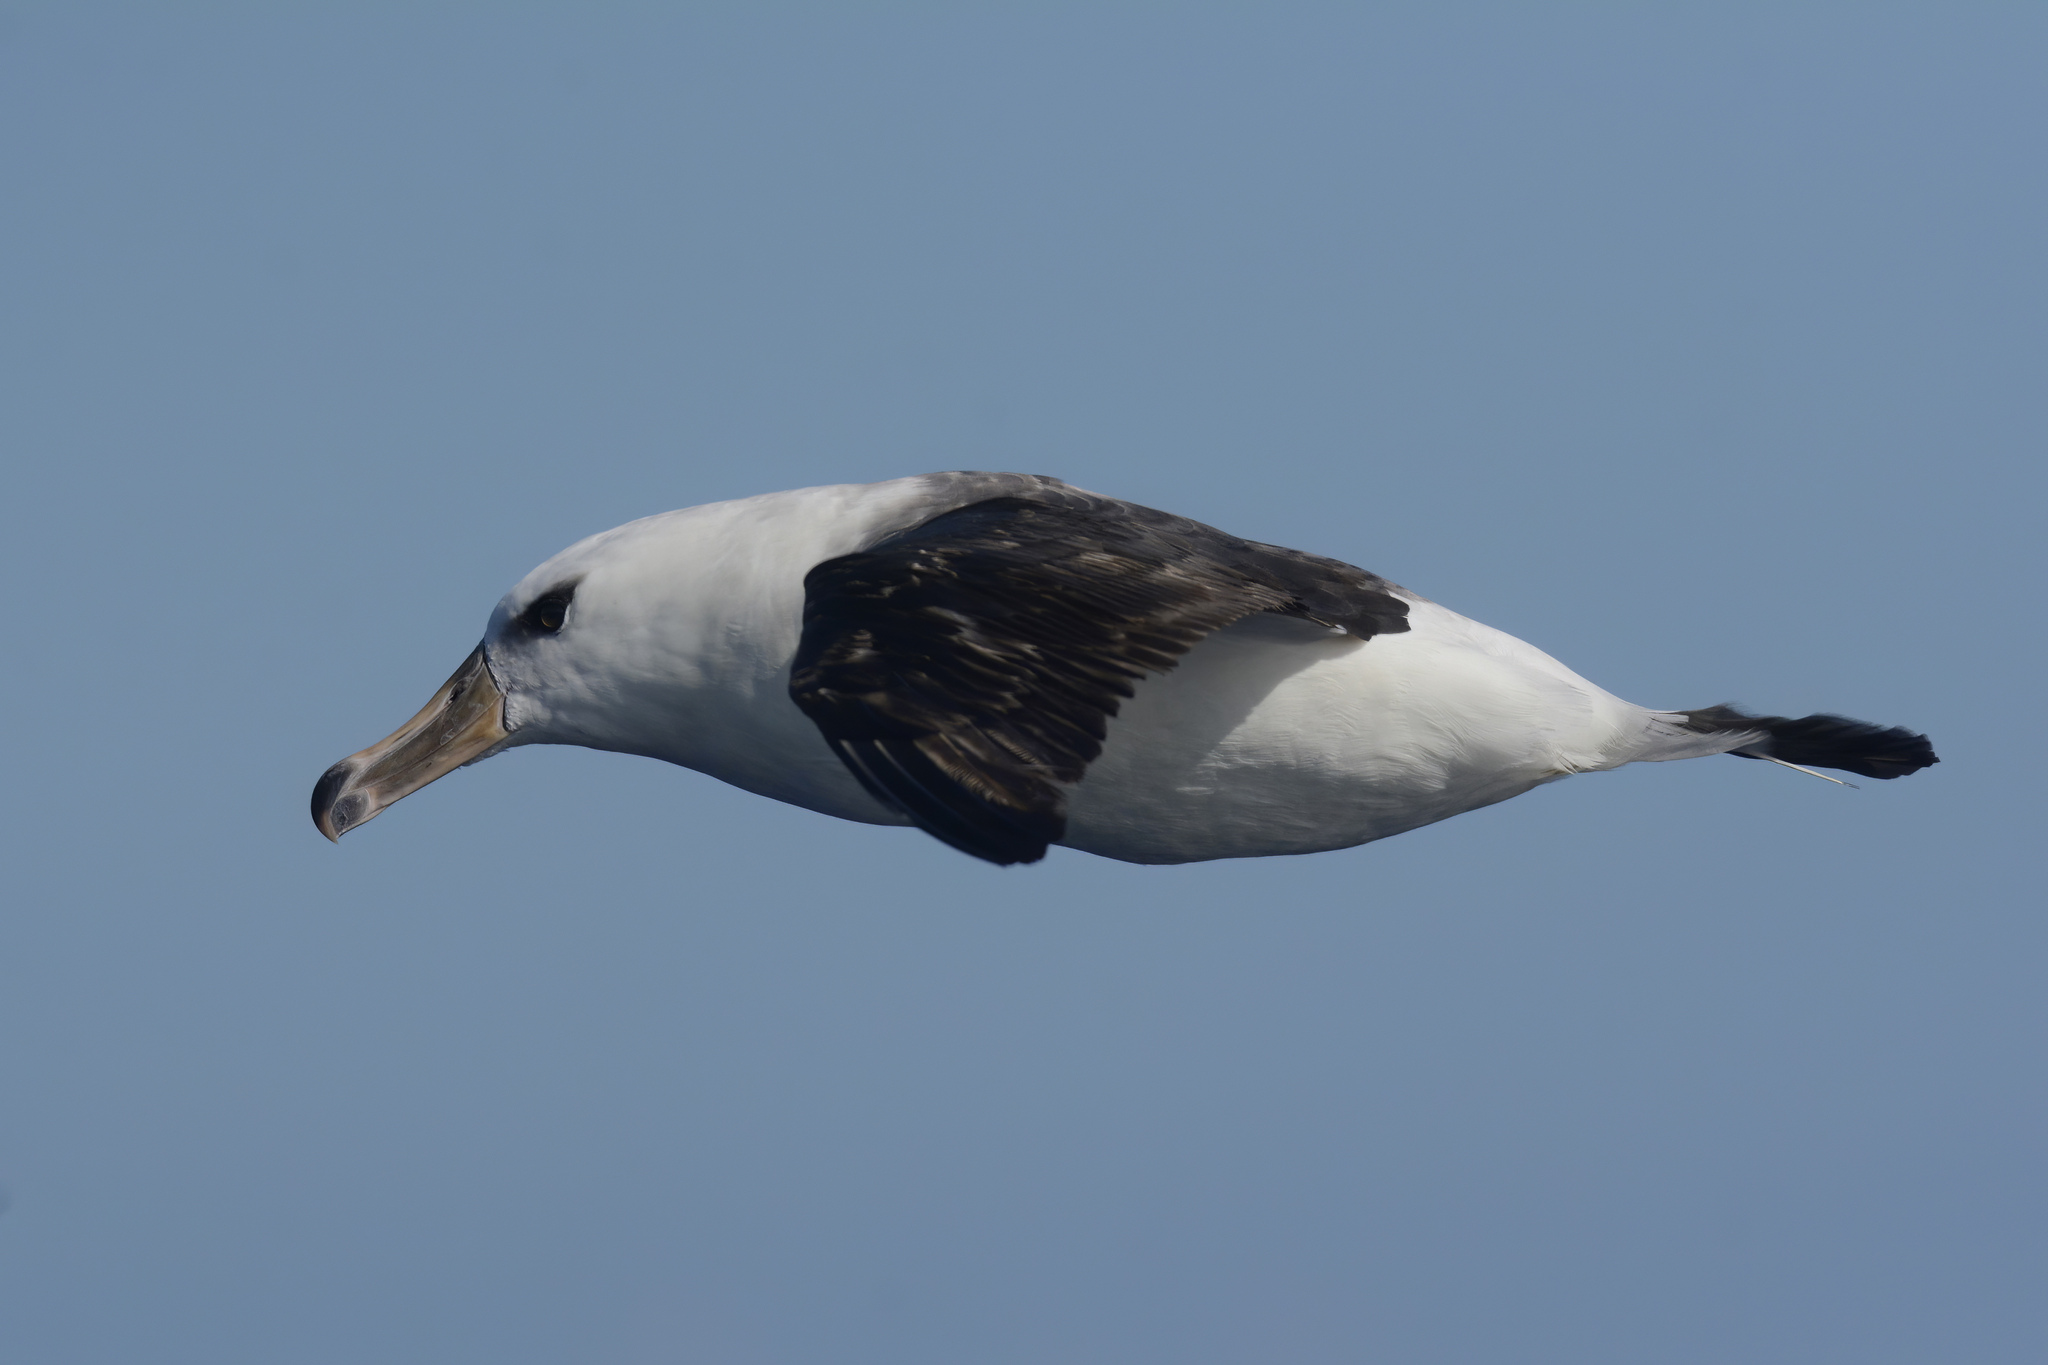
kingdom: Animalia
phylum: Chordata
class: Aves
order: Procellariiformes
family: Diomedeidae
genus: Thalassarche
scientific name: Thalassarche impavida
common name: Campbell albatross
